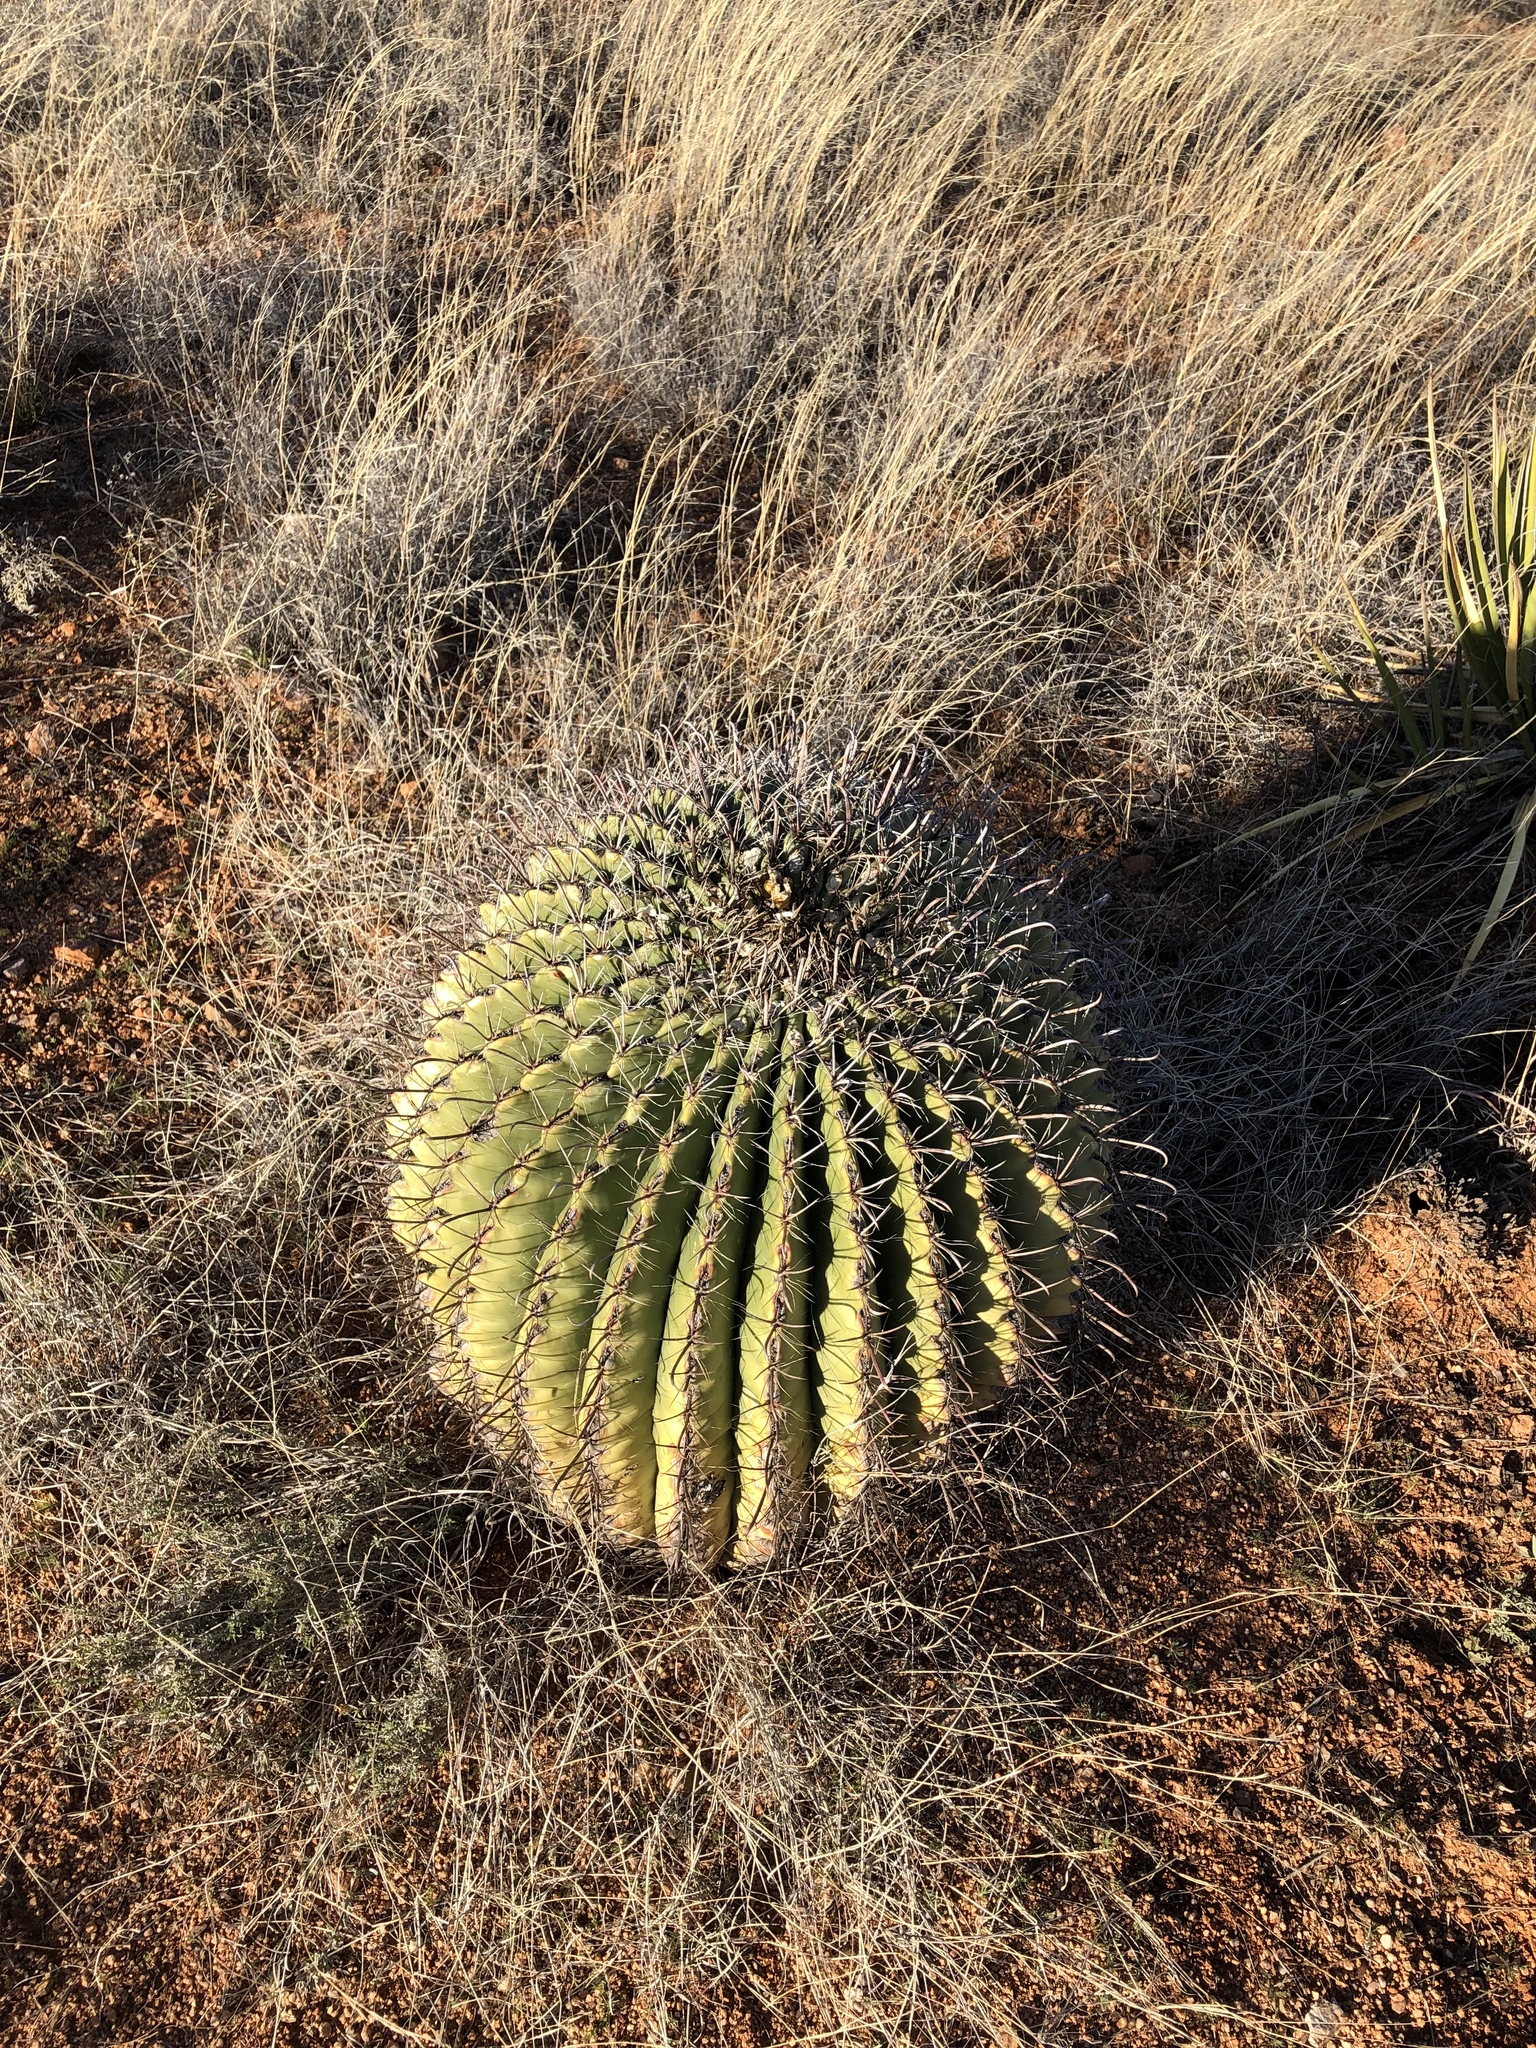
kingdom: Plantae
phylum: Tracheophyta
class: Magnoliopsida
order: Caryophyllales
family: Cactaceae
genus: Ferocactus
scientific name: Ferocactus wislizeni
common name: Candy barrel cactus
